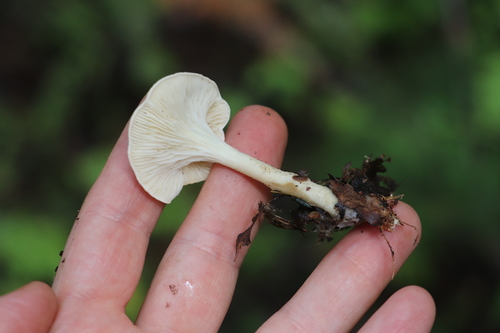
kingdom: Fungi
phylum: Basidiomycota
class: Agaricomycetes
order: Agaricales
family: Tricholomataceae
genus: Infundibulicybe
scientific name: Infundibulicybe gibba
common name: Common funnel
